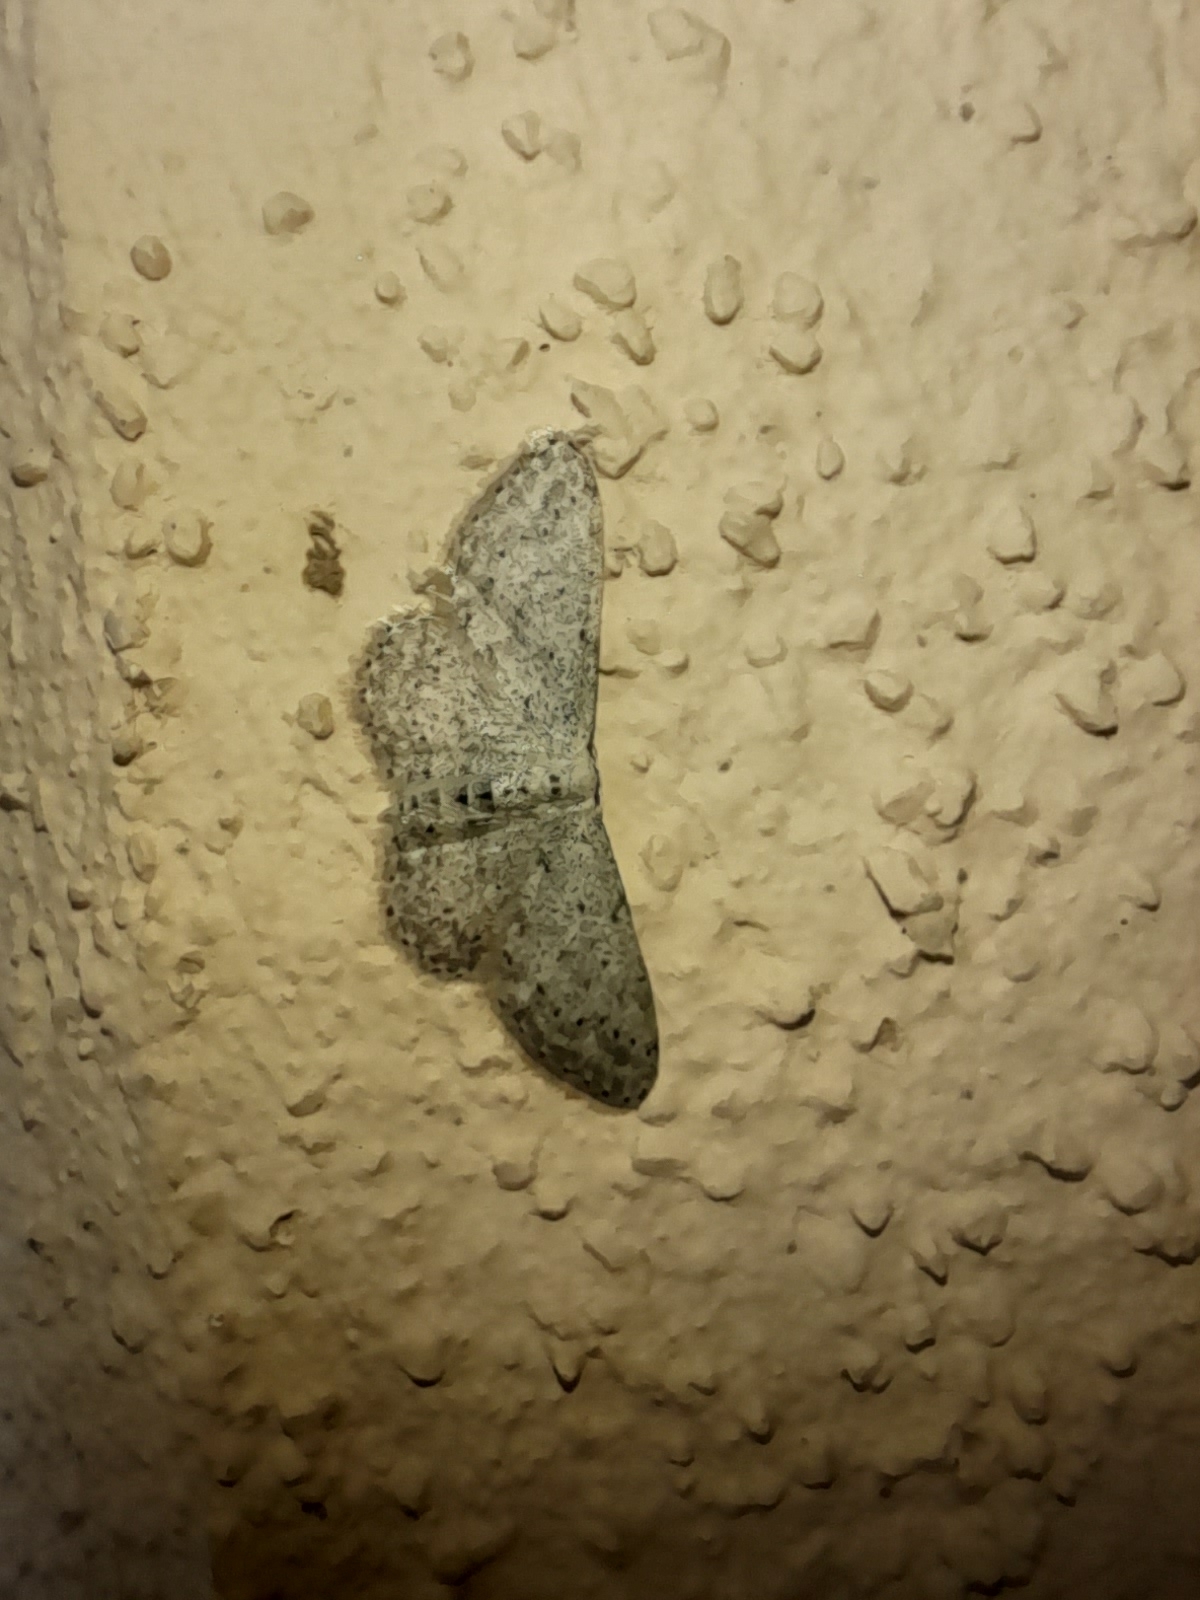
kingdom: Animalia
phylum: Arthropoda
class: Insecta
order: Lepidoptera
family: Geometridae
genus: Idaea
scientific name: Idaea seriata
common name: Small dusty wave
